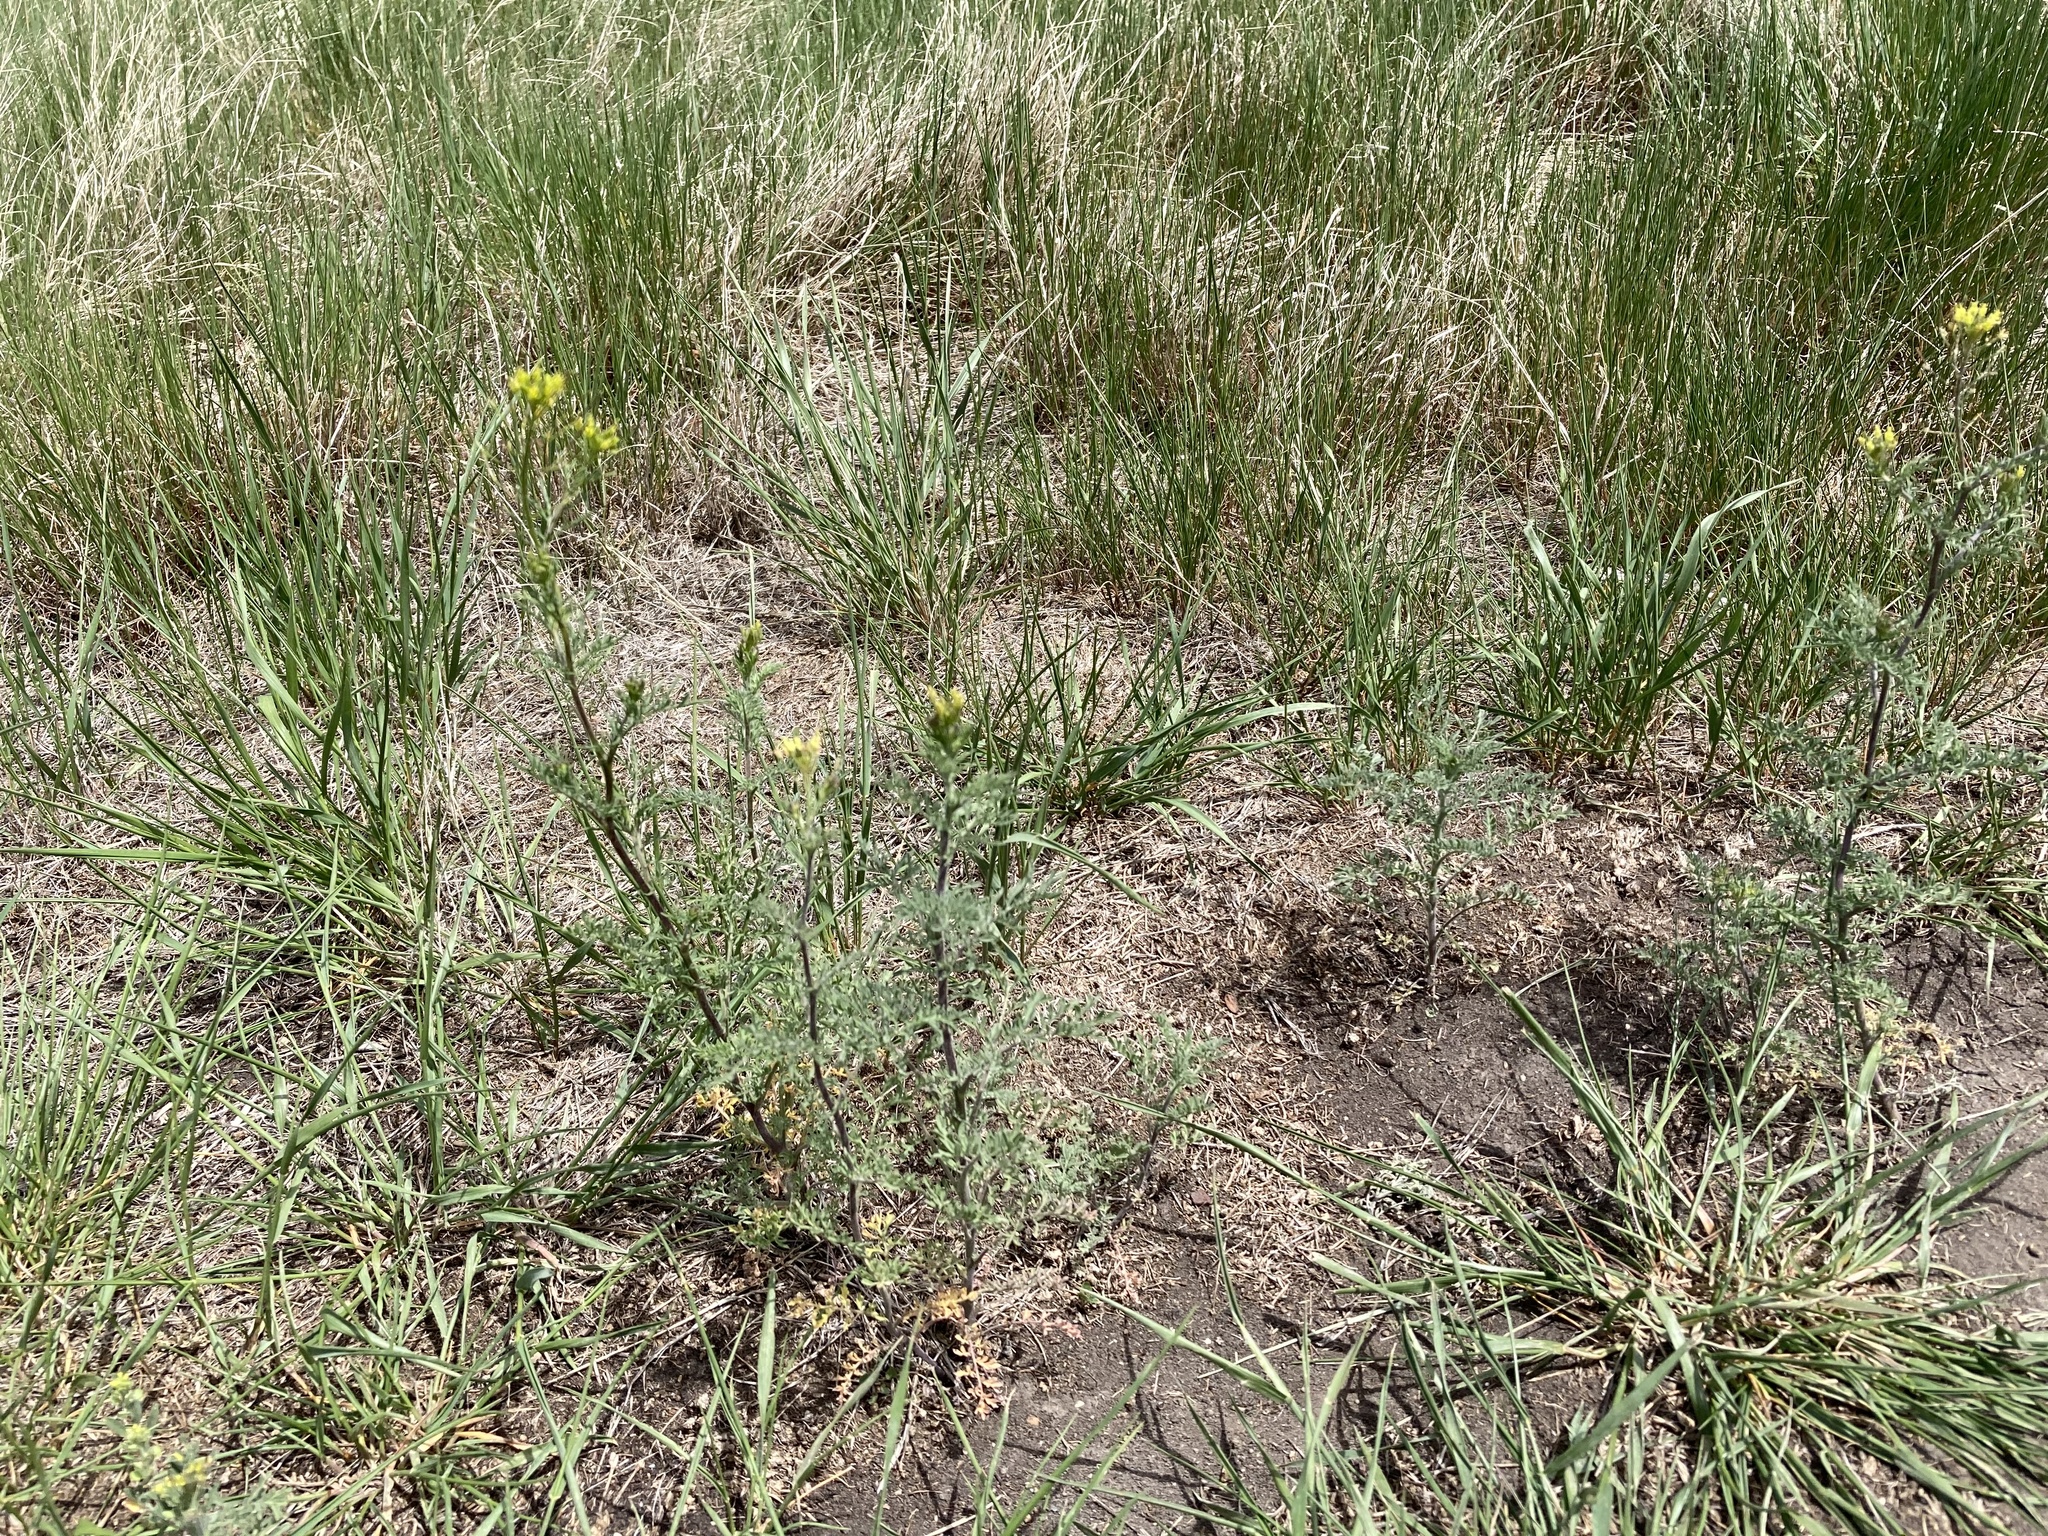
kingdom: Plantae
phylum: Tracheophyta
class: Magnoliopsida
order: Brassicales
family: Brassicaceae
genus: Descurainia
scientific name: Descurainia sophia
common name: Flixweed
